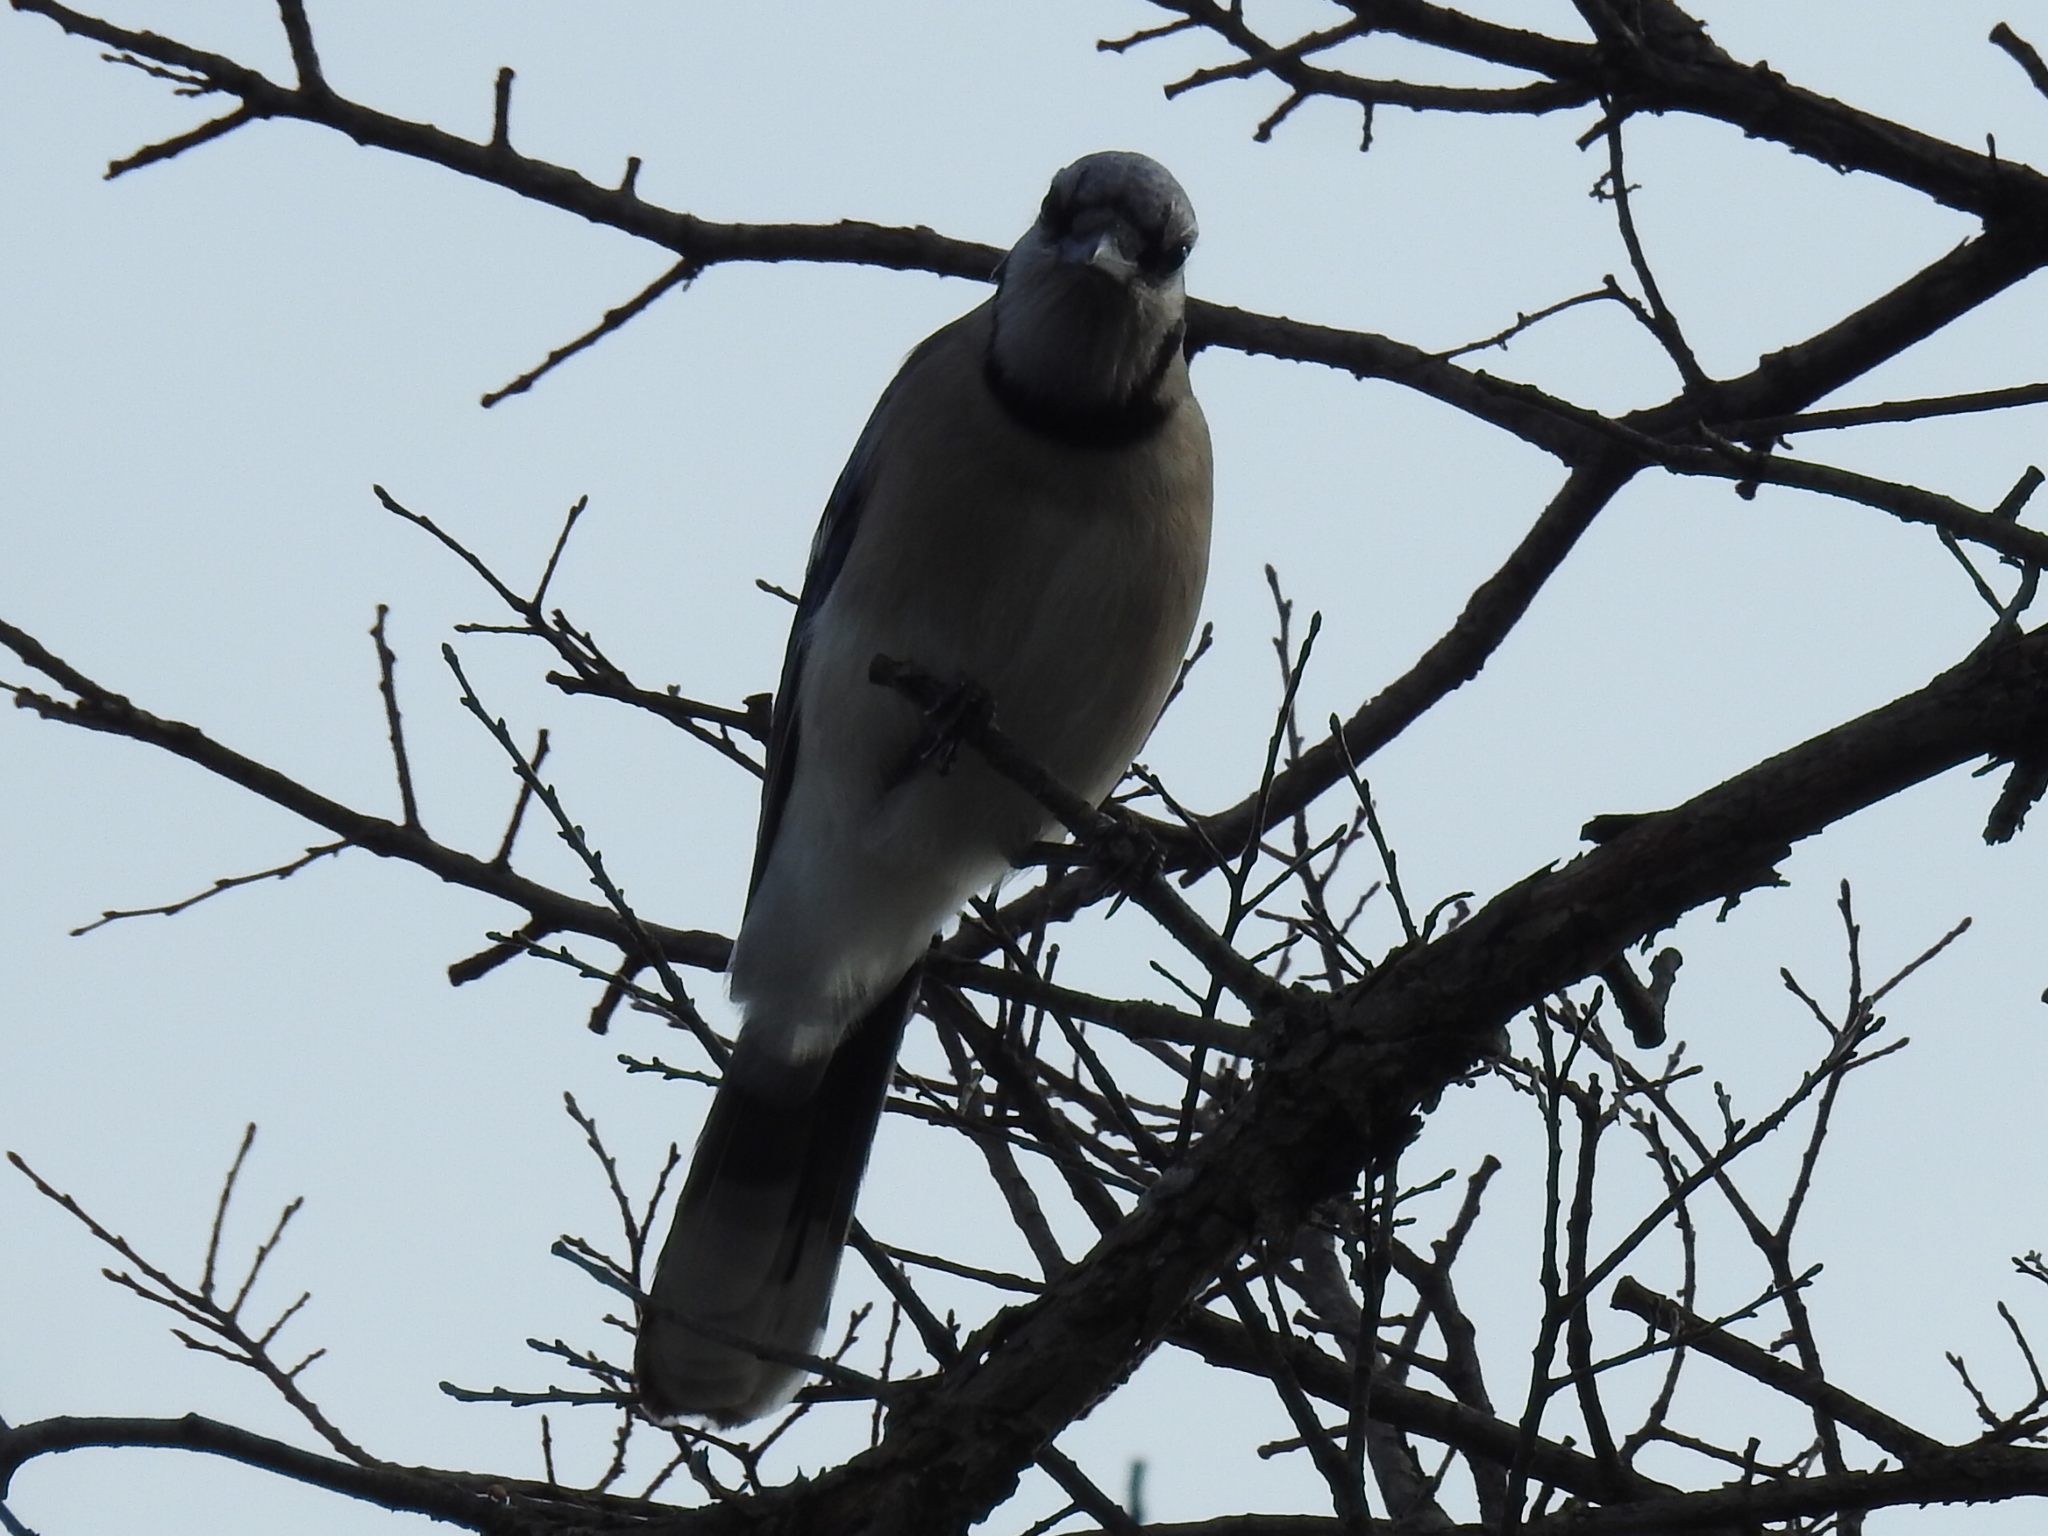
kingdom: Animalia
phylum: Chordata
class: Aves
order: Passeriformes
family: Corvidae
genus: Cyanocitta
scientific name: Cyanocitta cristata
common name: Blue jay
